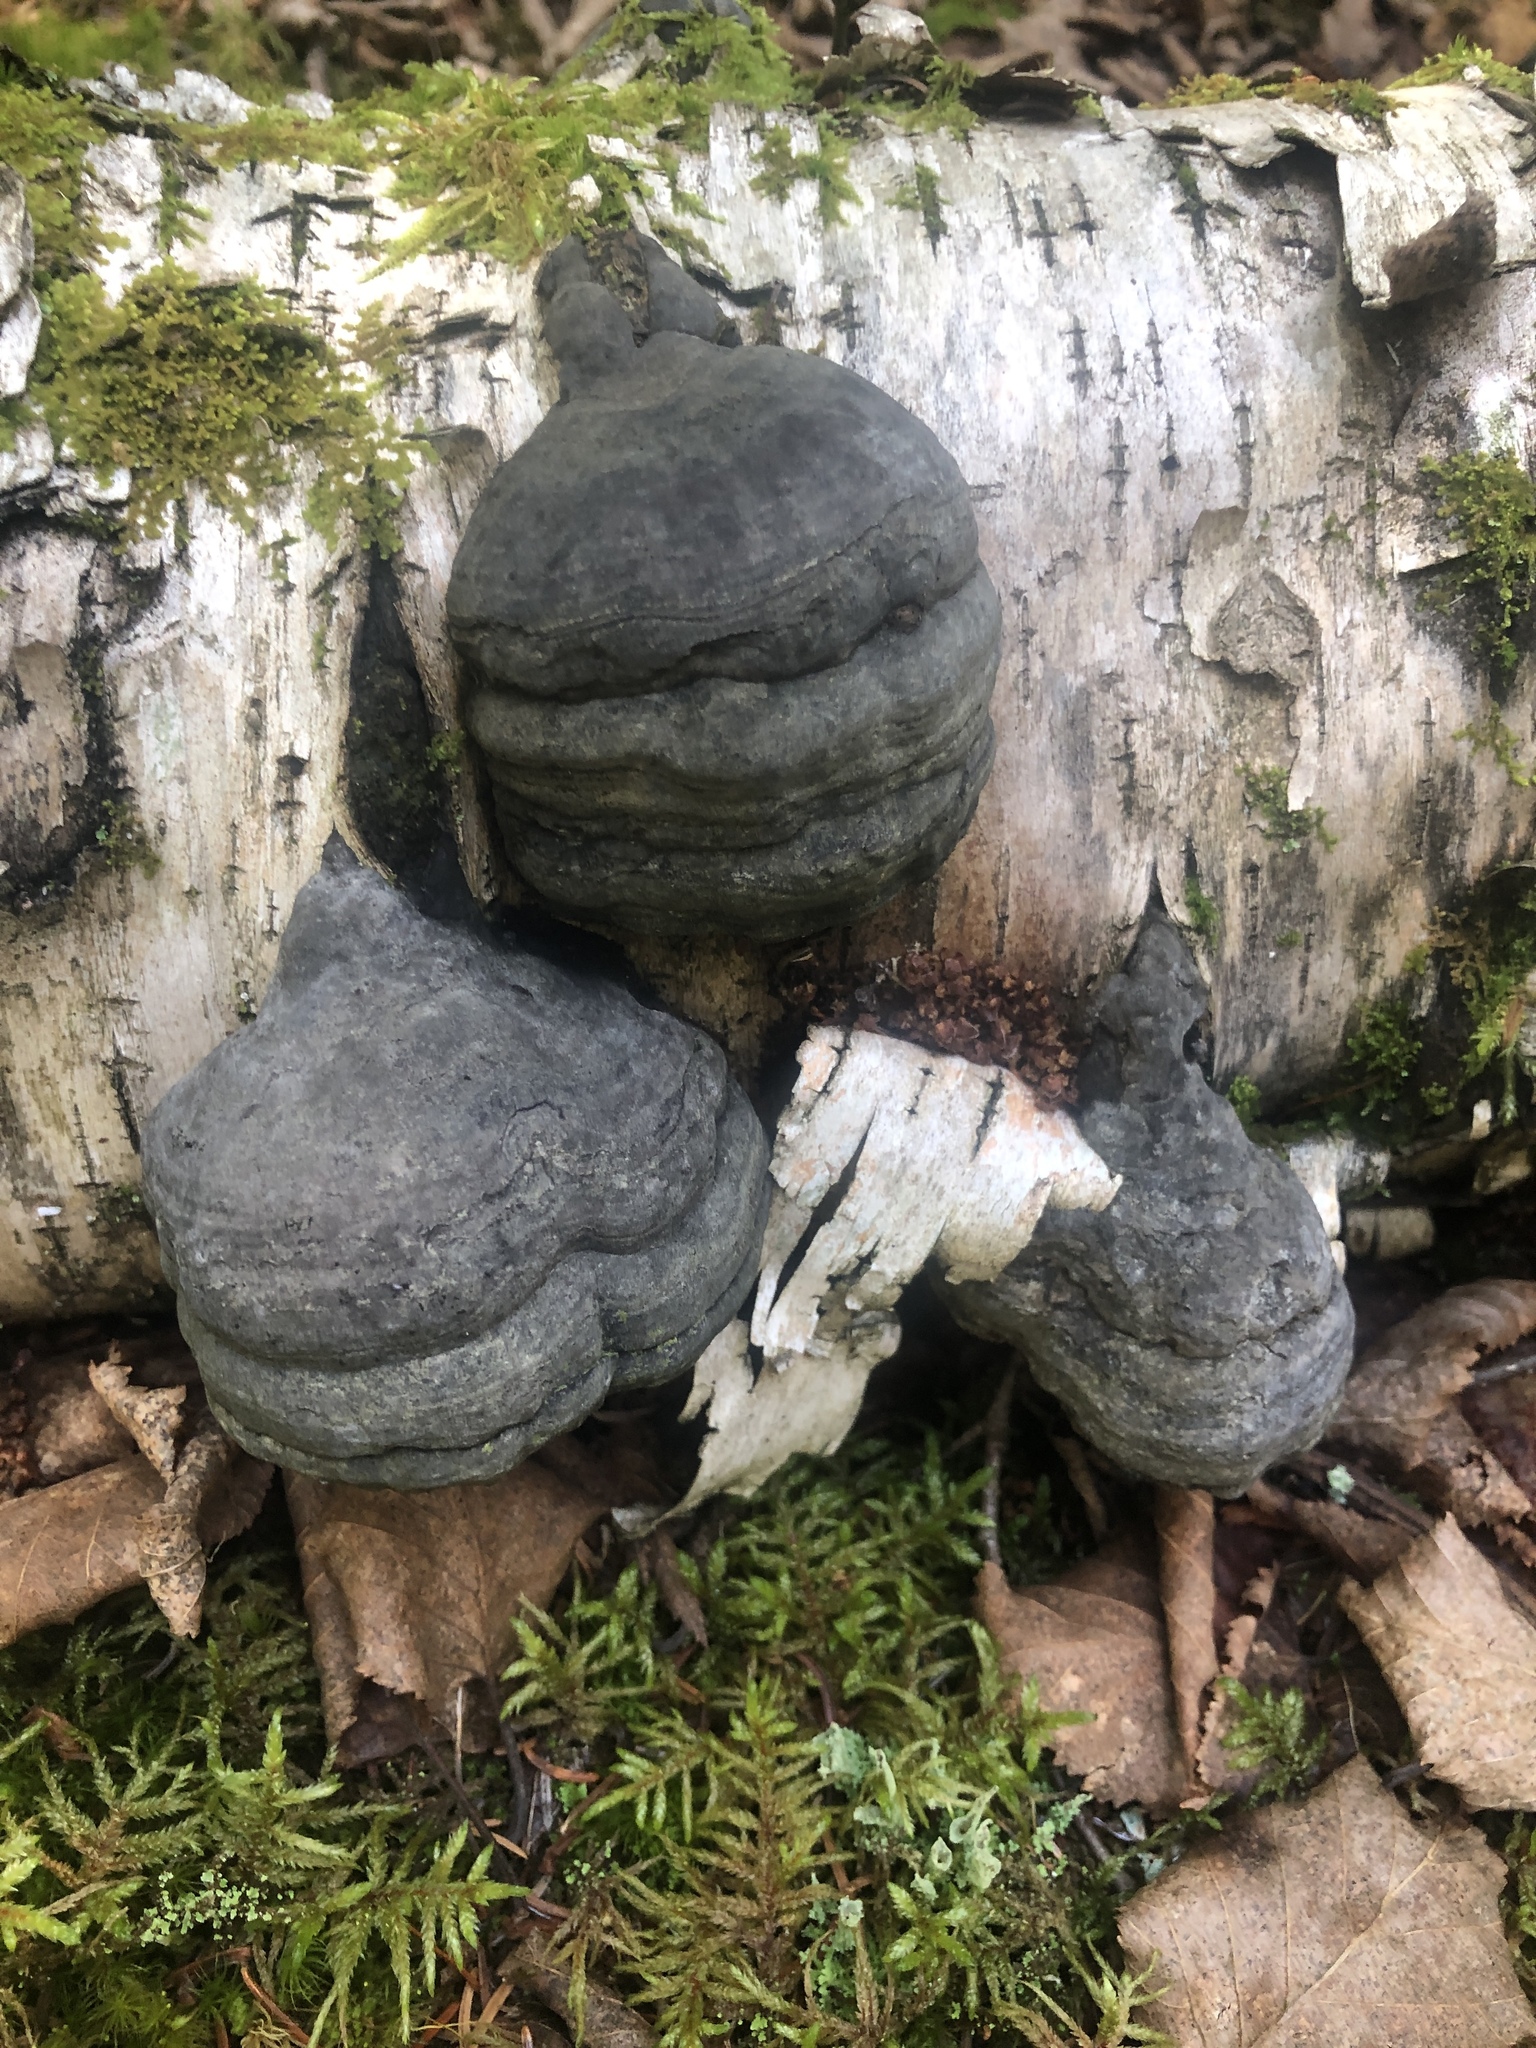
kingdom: Fungi
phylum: Basidiomycota
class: Agaricomycetes
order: Polyporales
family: Polyporaceae
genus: Fomes
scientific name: Fomes fomentarius
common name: Hoof fungus
